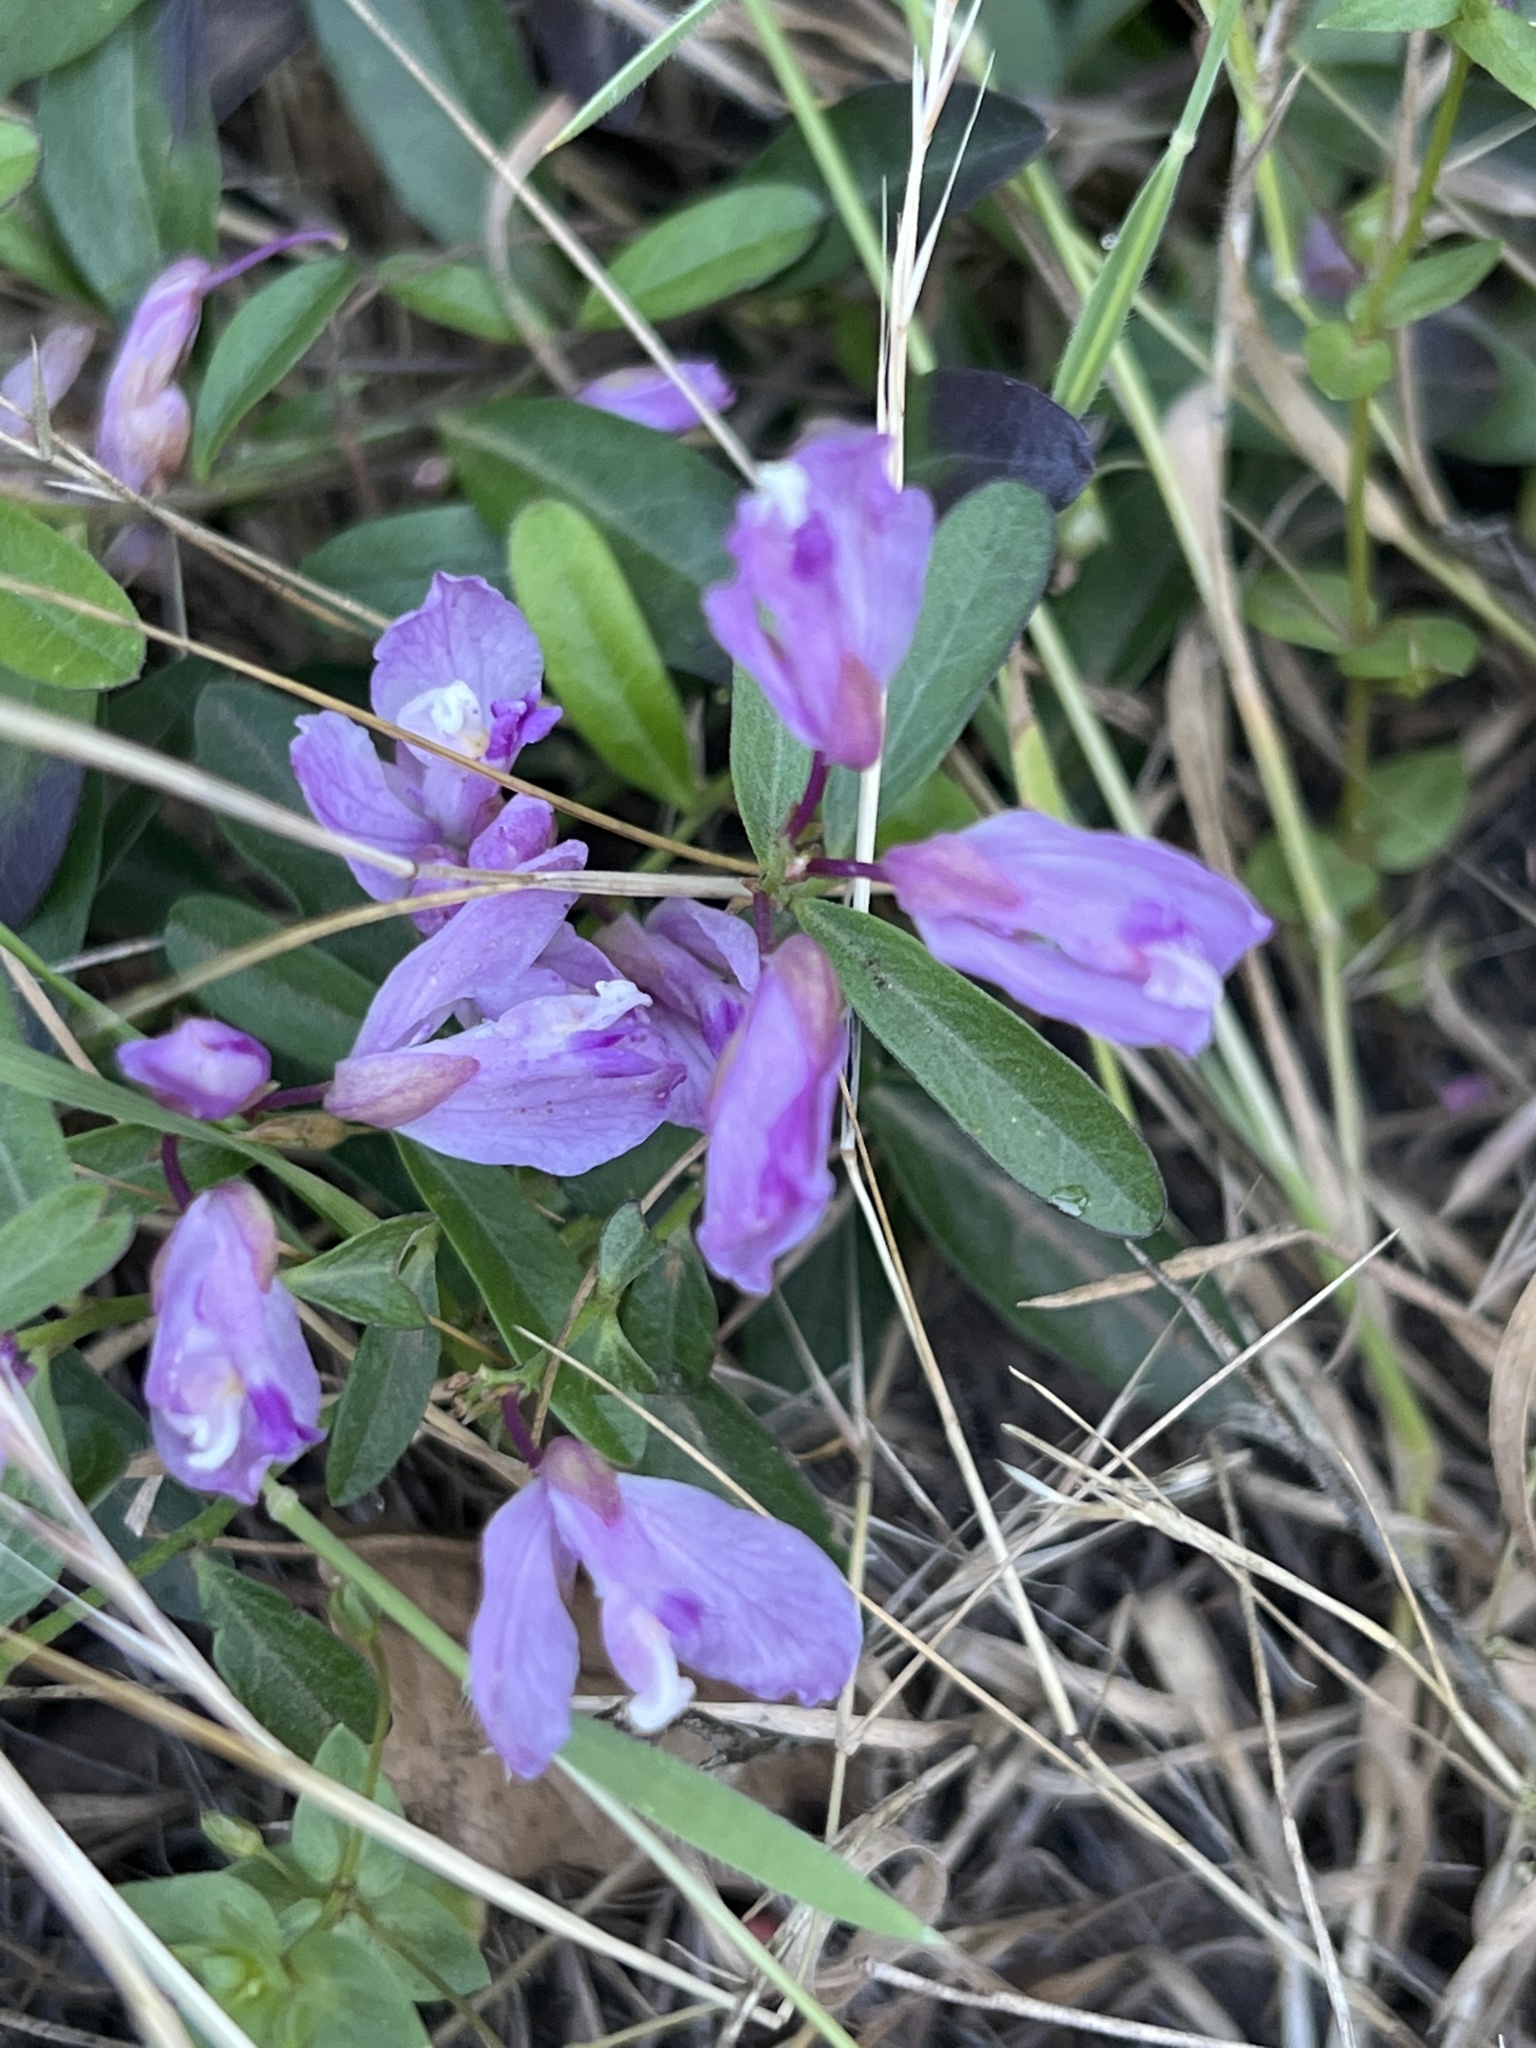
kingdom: Plantae
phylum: Tracheophyta
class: Magnoliopsida
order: Fabales
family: Polygalaceae
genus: Rhinotropis
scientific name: Rhinotropis californica
